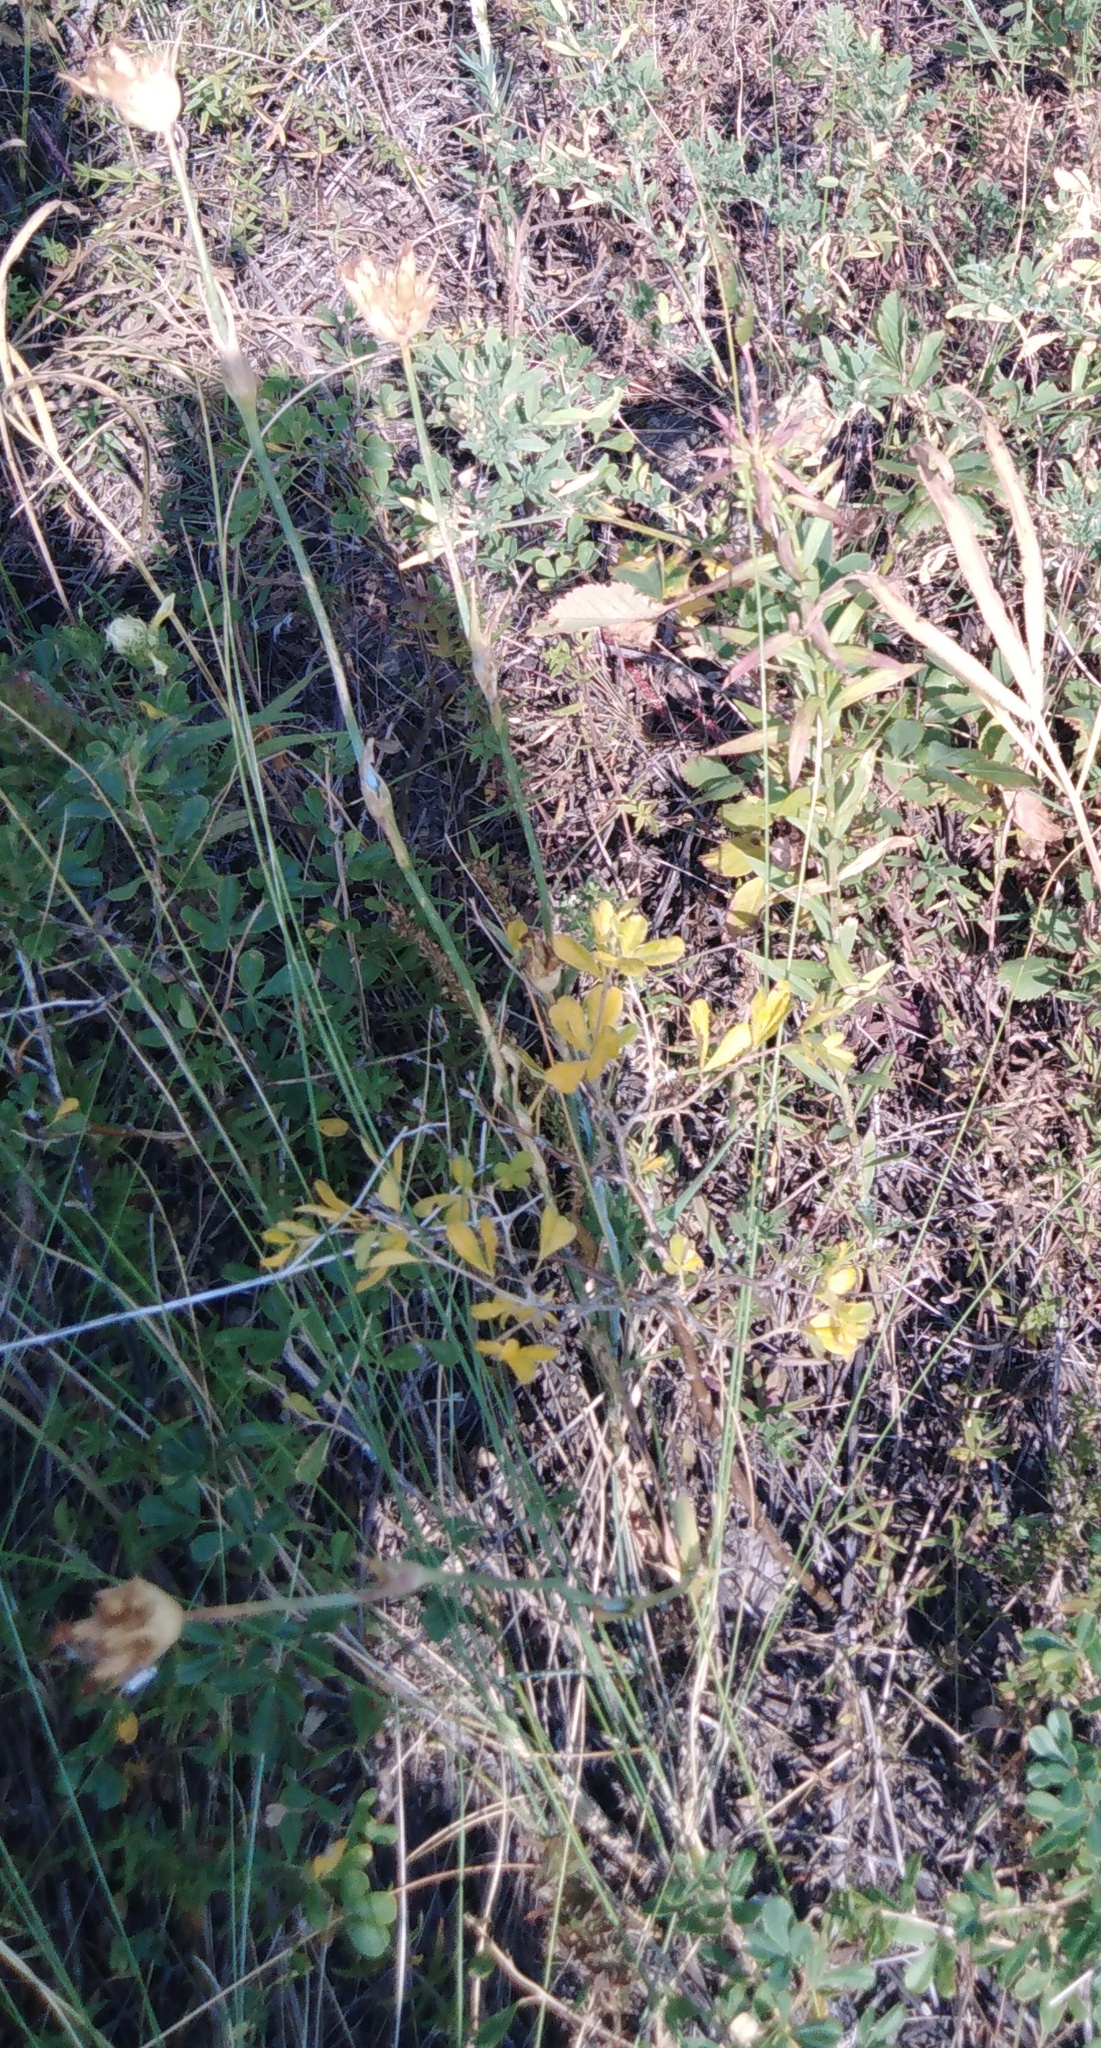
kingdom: Plantae
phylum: Tracheophyta
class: Magnoliopsida
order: Caryophyllales
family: Caryophyllaceae
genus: Dianthus
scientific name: Dianthus capitatus
